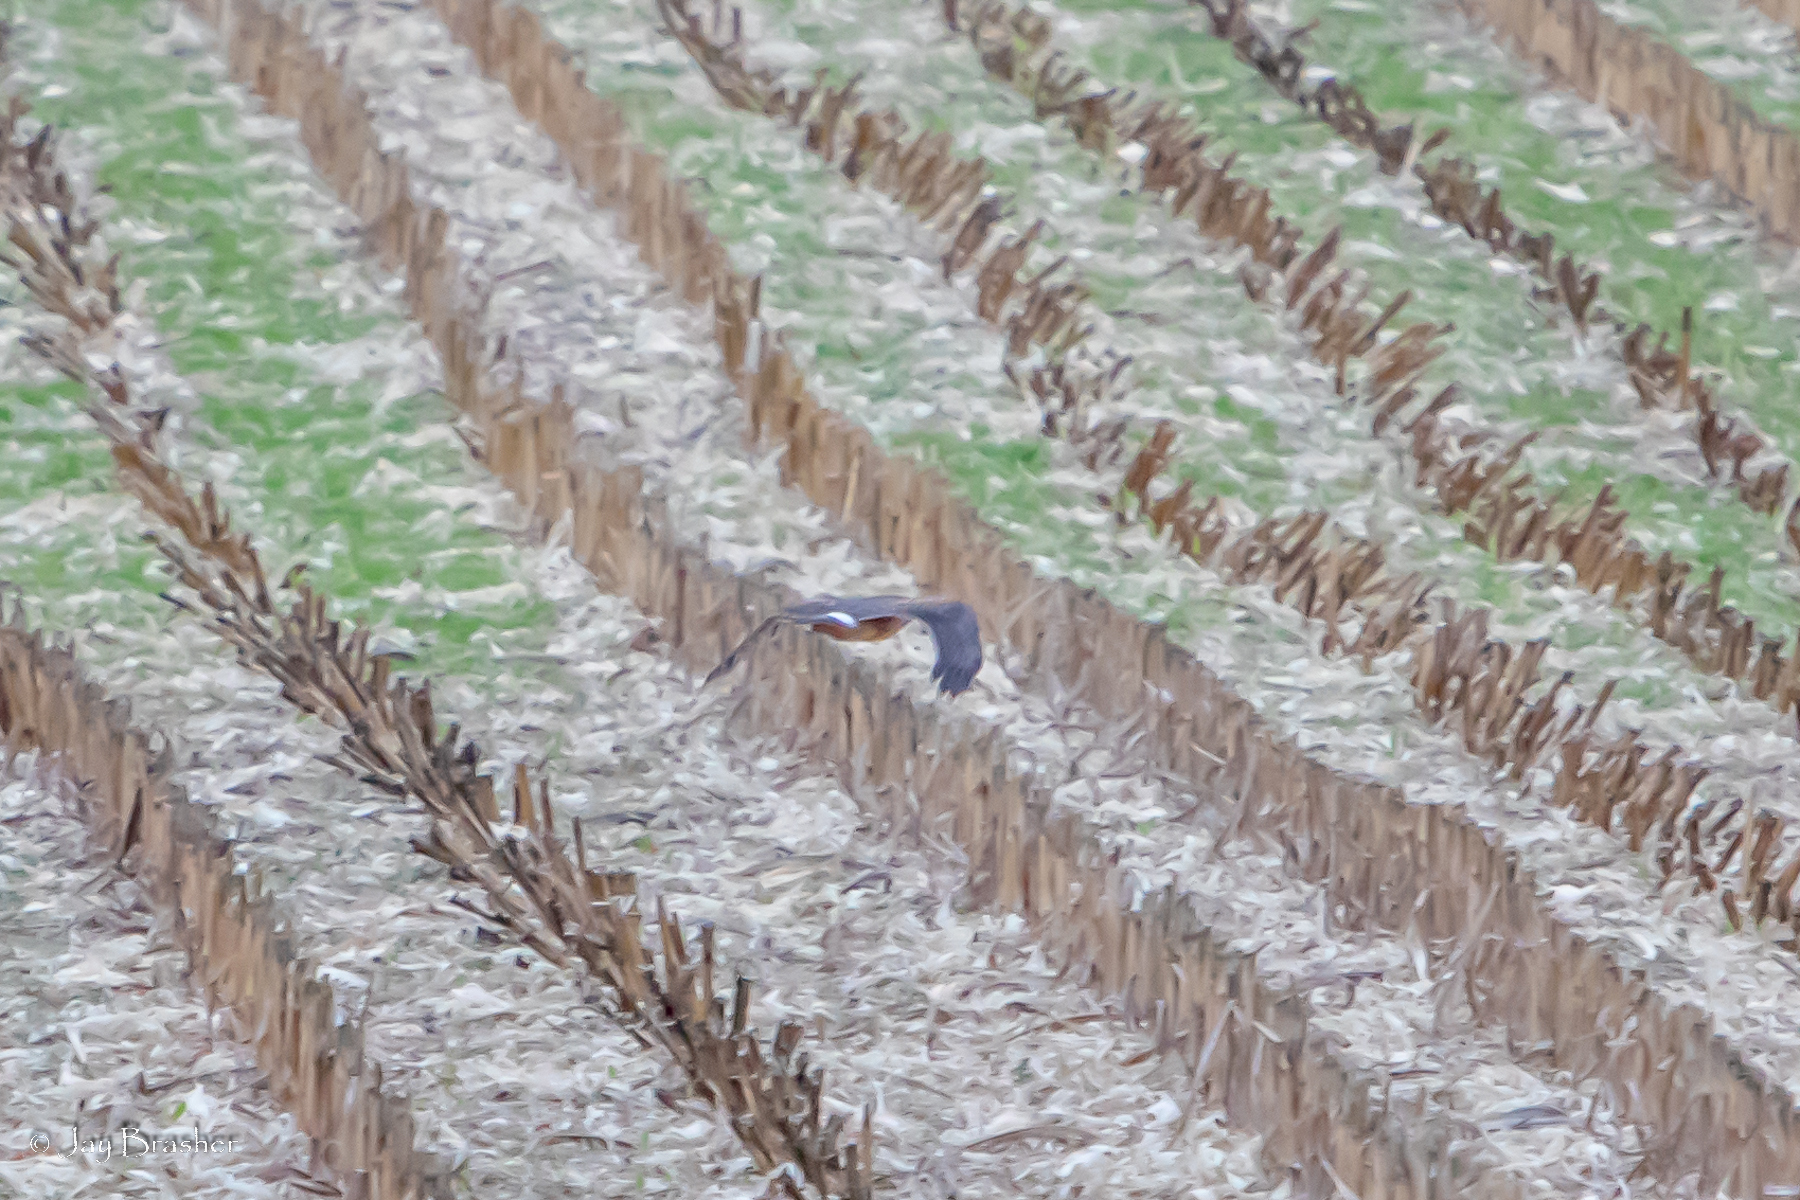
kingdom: Animalia
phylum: Chordata
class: Aves
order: Accipitriformes
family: Accipitridae
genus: Circus
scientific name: Circus cyaneus
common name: Hen harrier
